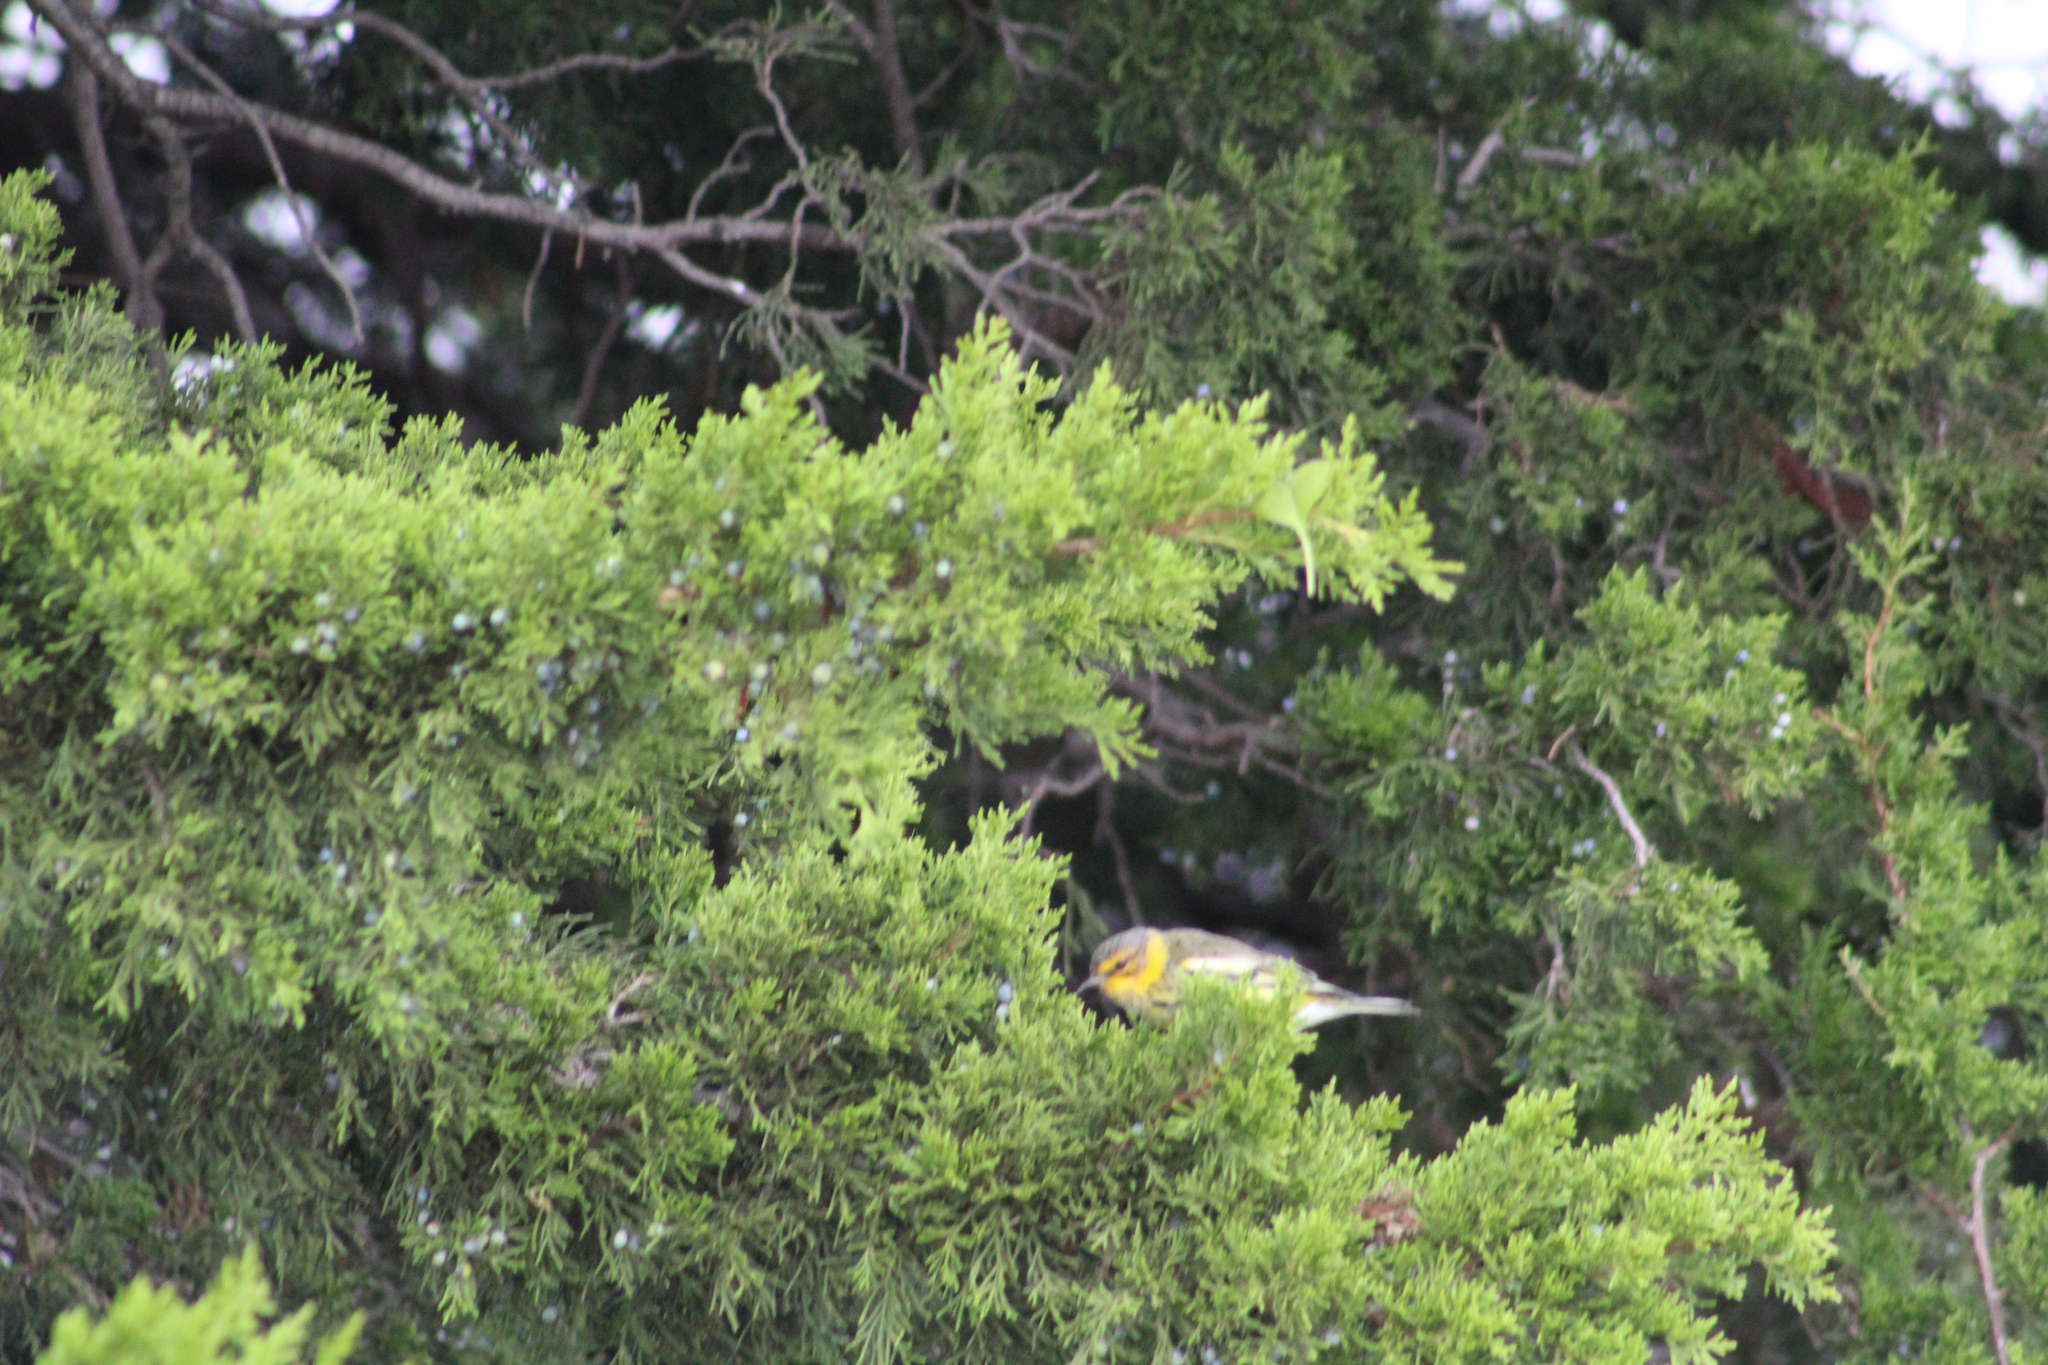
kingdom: Animalia
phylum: Chordata
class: Aves
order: Passeriformes
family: Parulidae
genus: Setophaga
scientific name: Setophaga tigrina
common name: Cape may warbler
